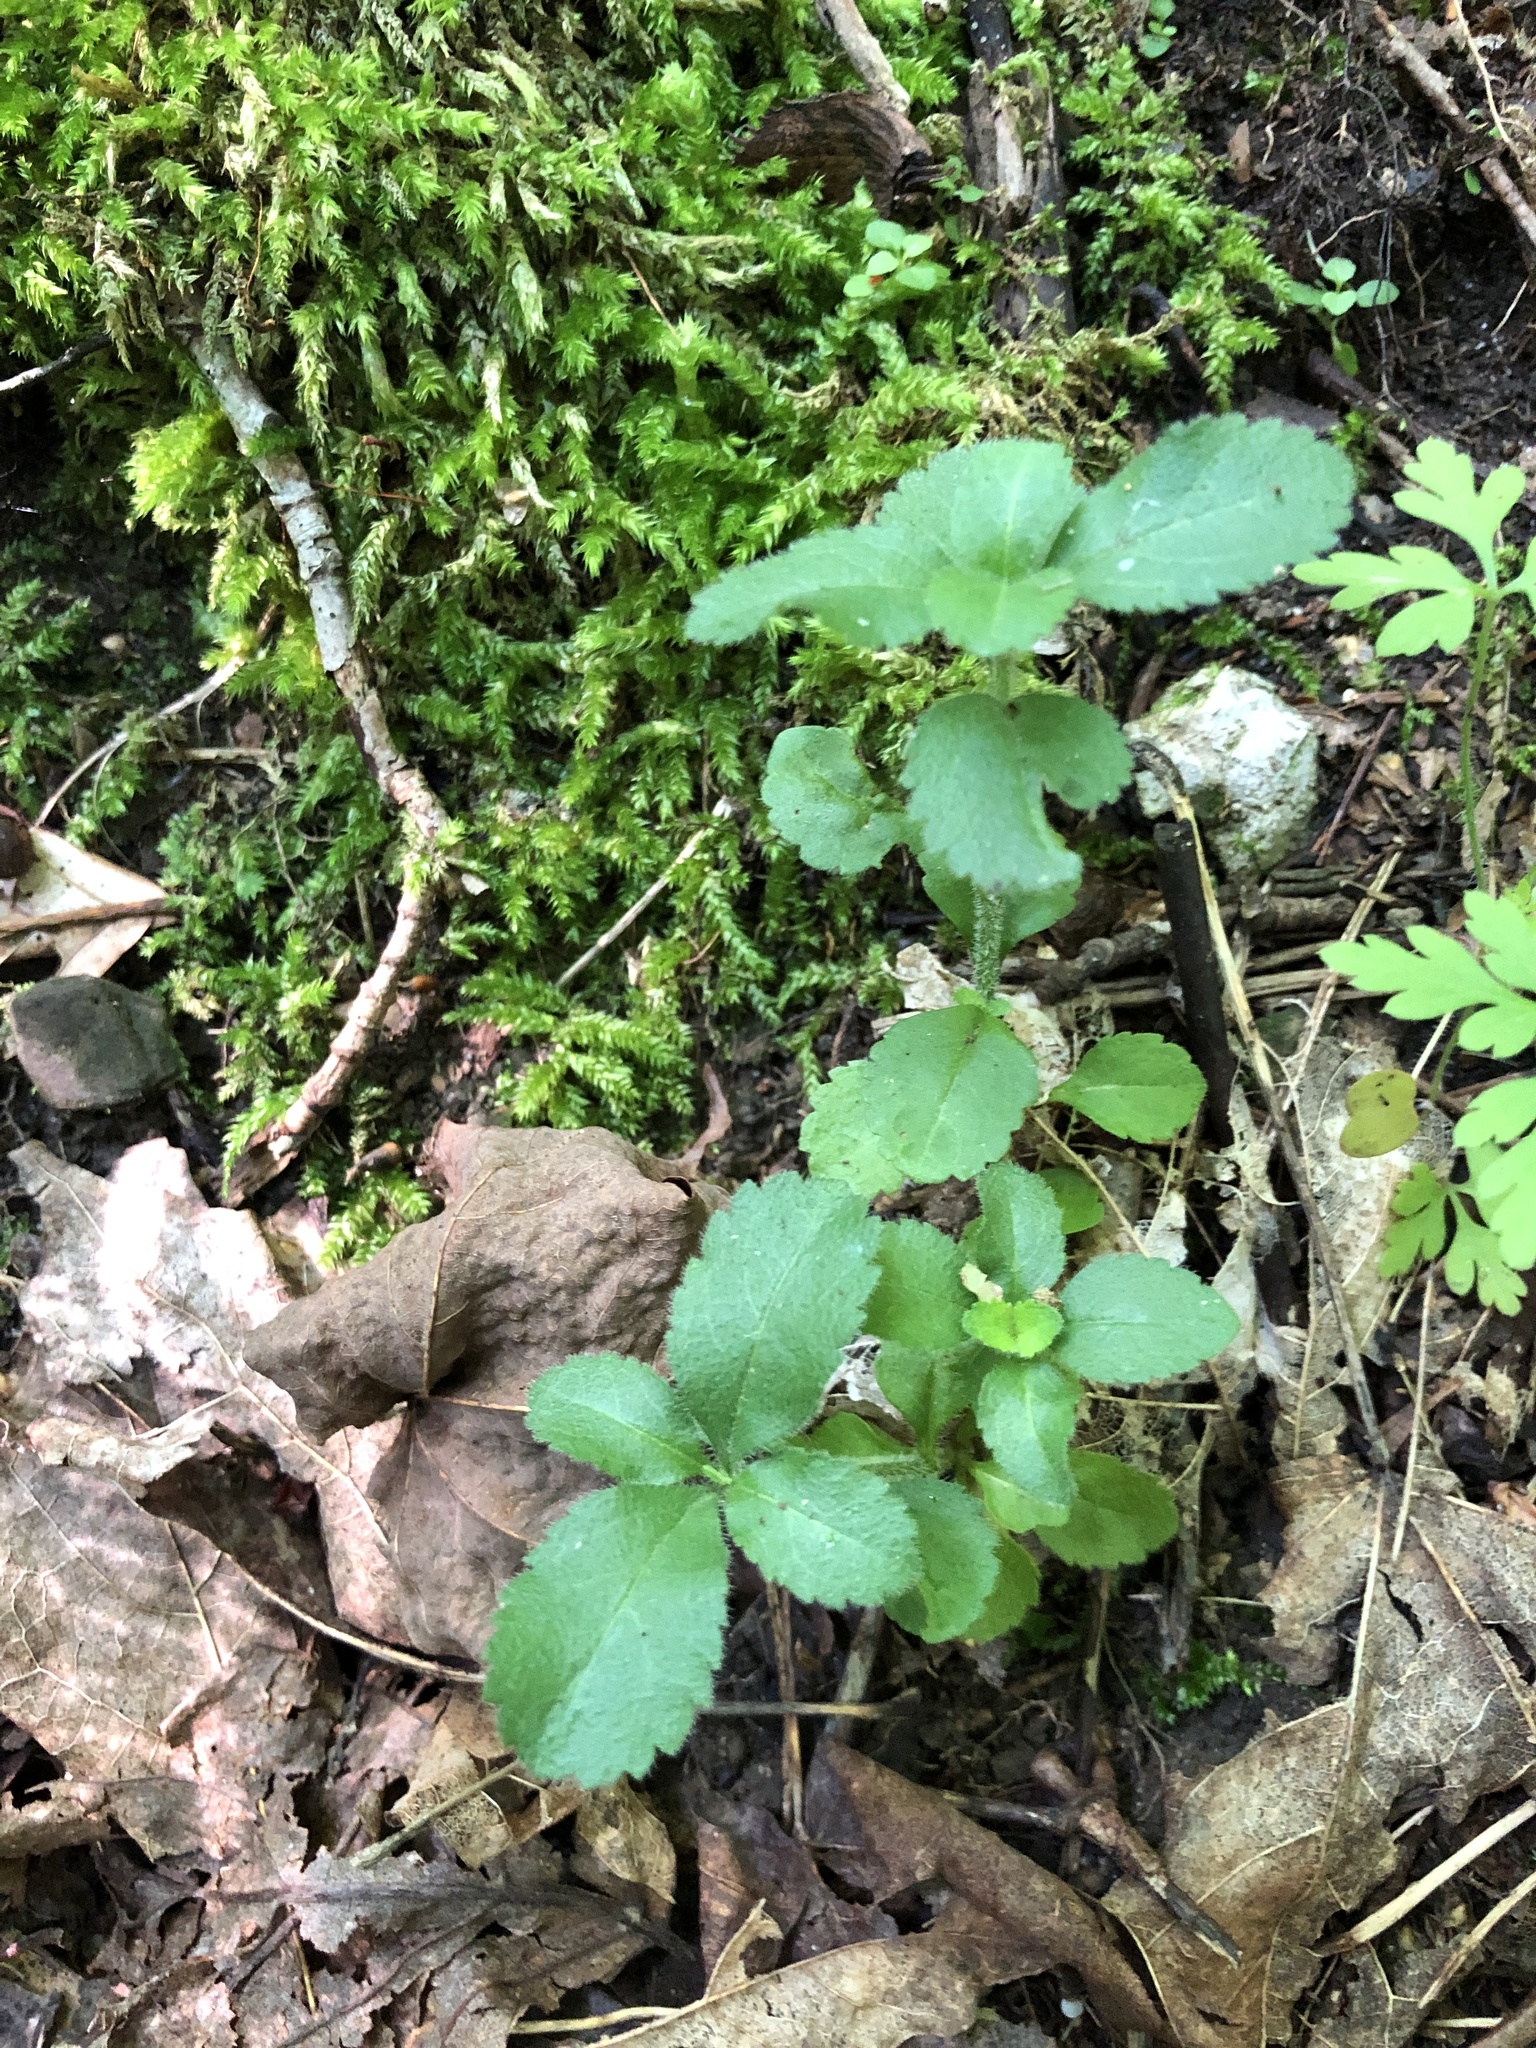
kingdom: Plantae
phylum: Tracheophyta
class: Magnoliopsida
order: Lamiales
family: Plantaginaceae
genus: Veronica
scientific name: Veronica officinalis
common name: Common speedwell
